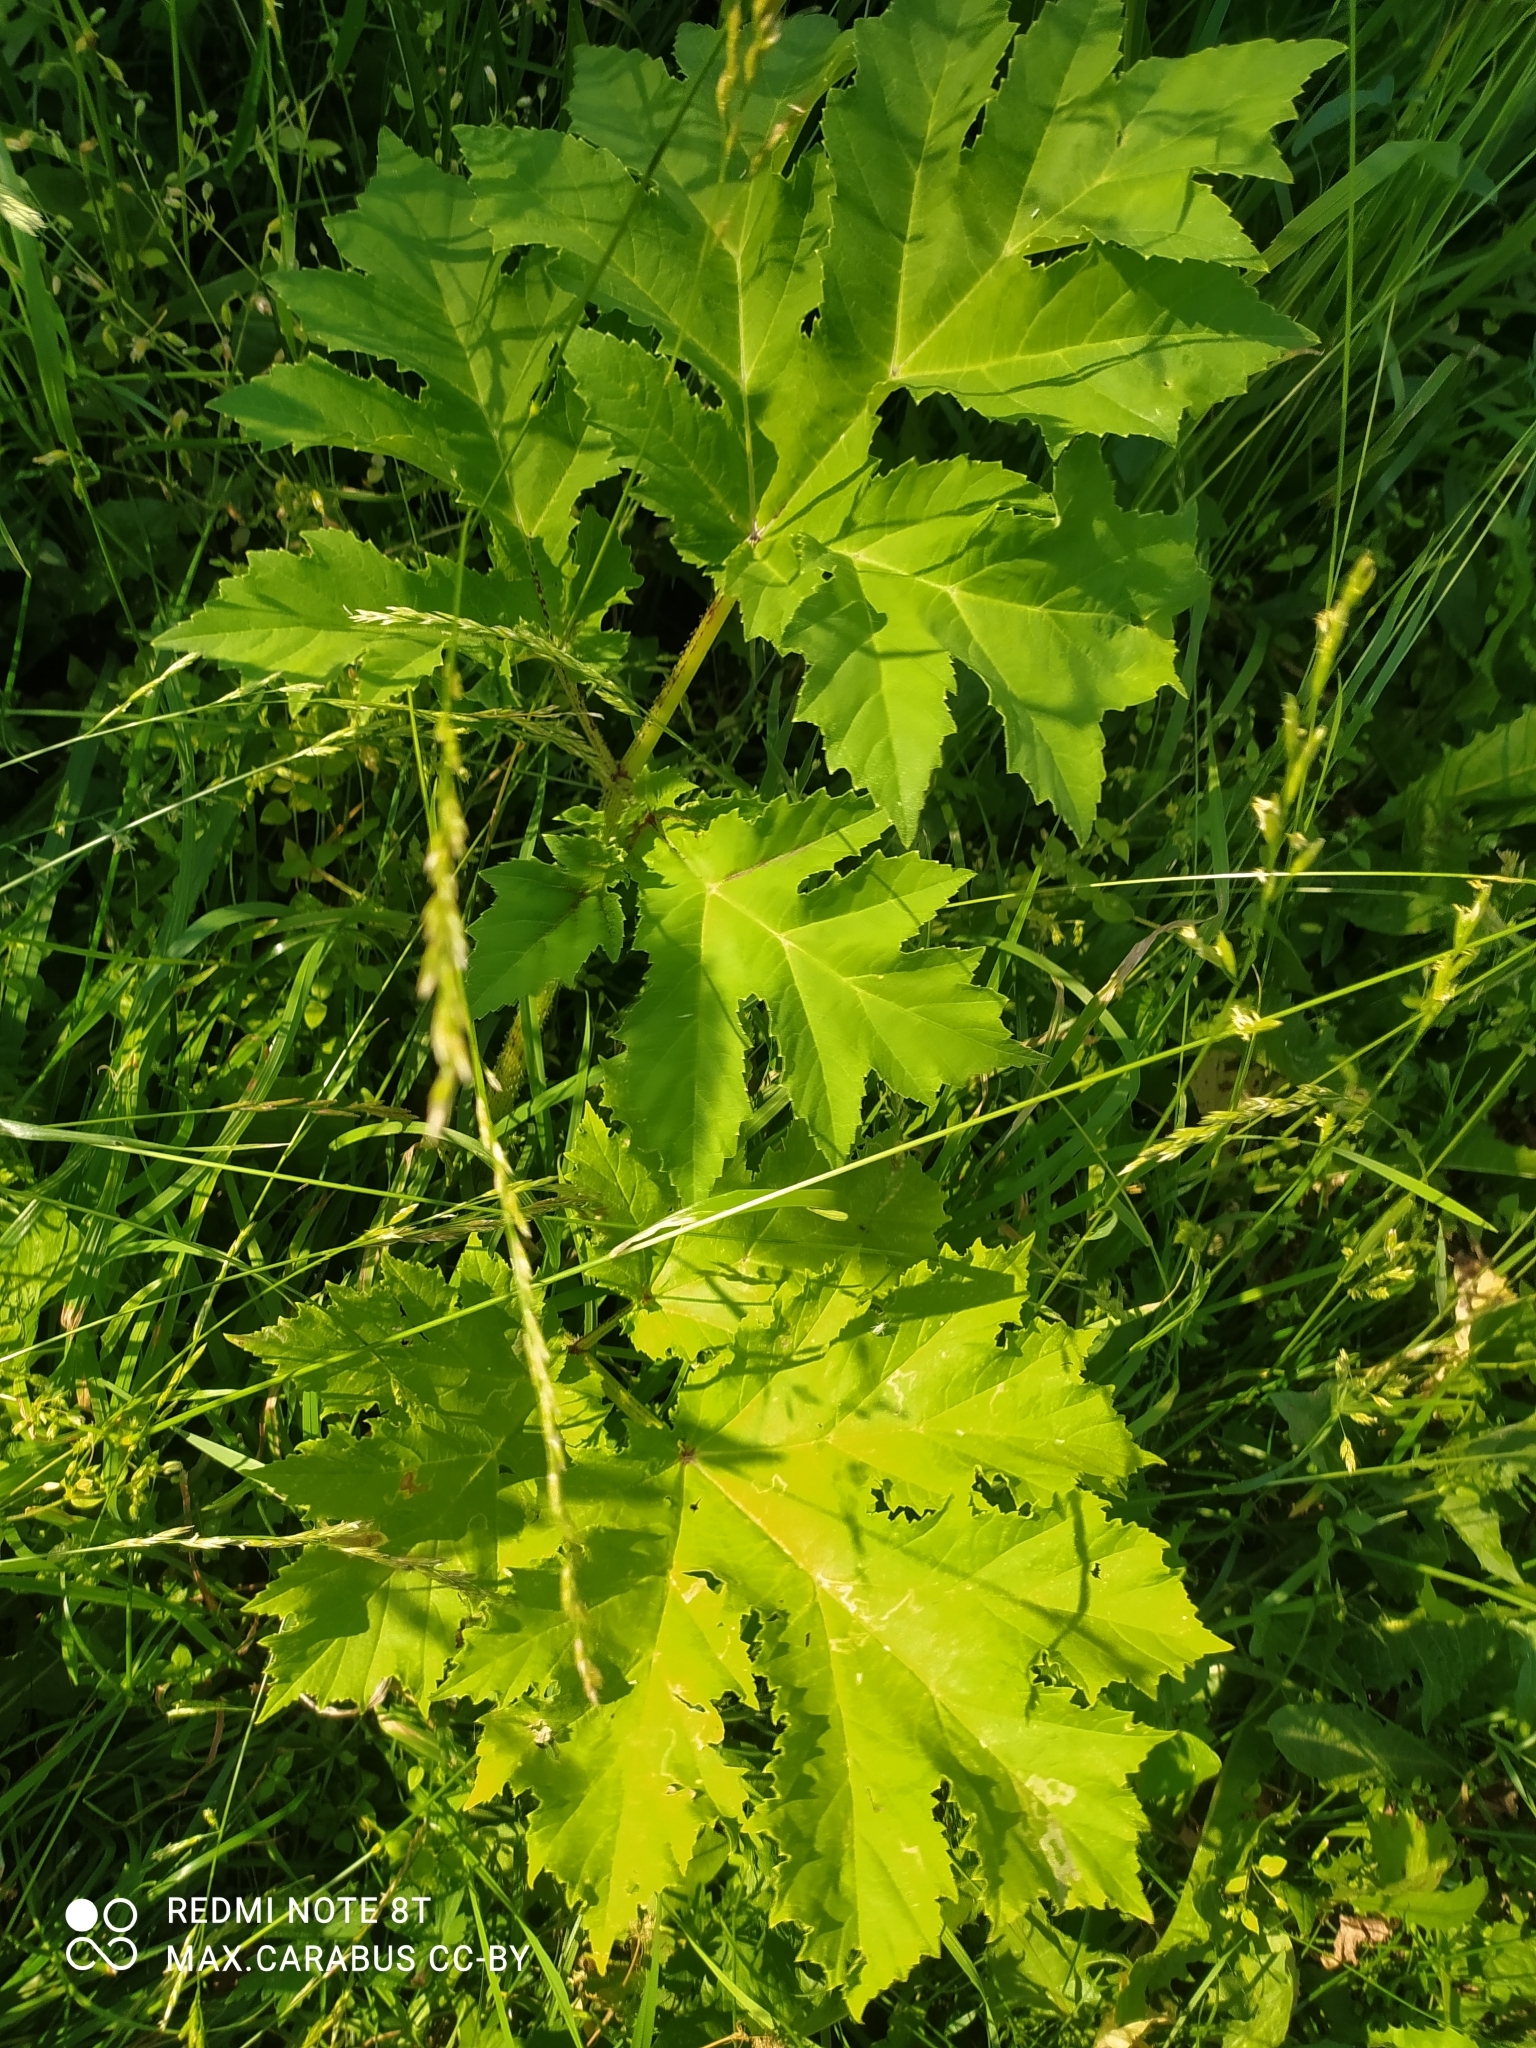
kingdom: Plantae
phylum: Tracheophyta
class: Magnoliopsida
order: Apiales
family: Apiaceae
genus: Heracleum
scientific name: Heracleum sosnowskyi
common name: Sosnowsky's hogweed
